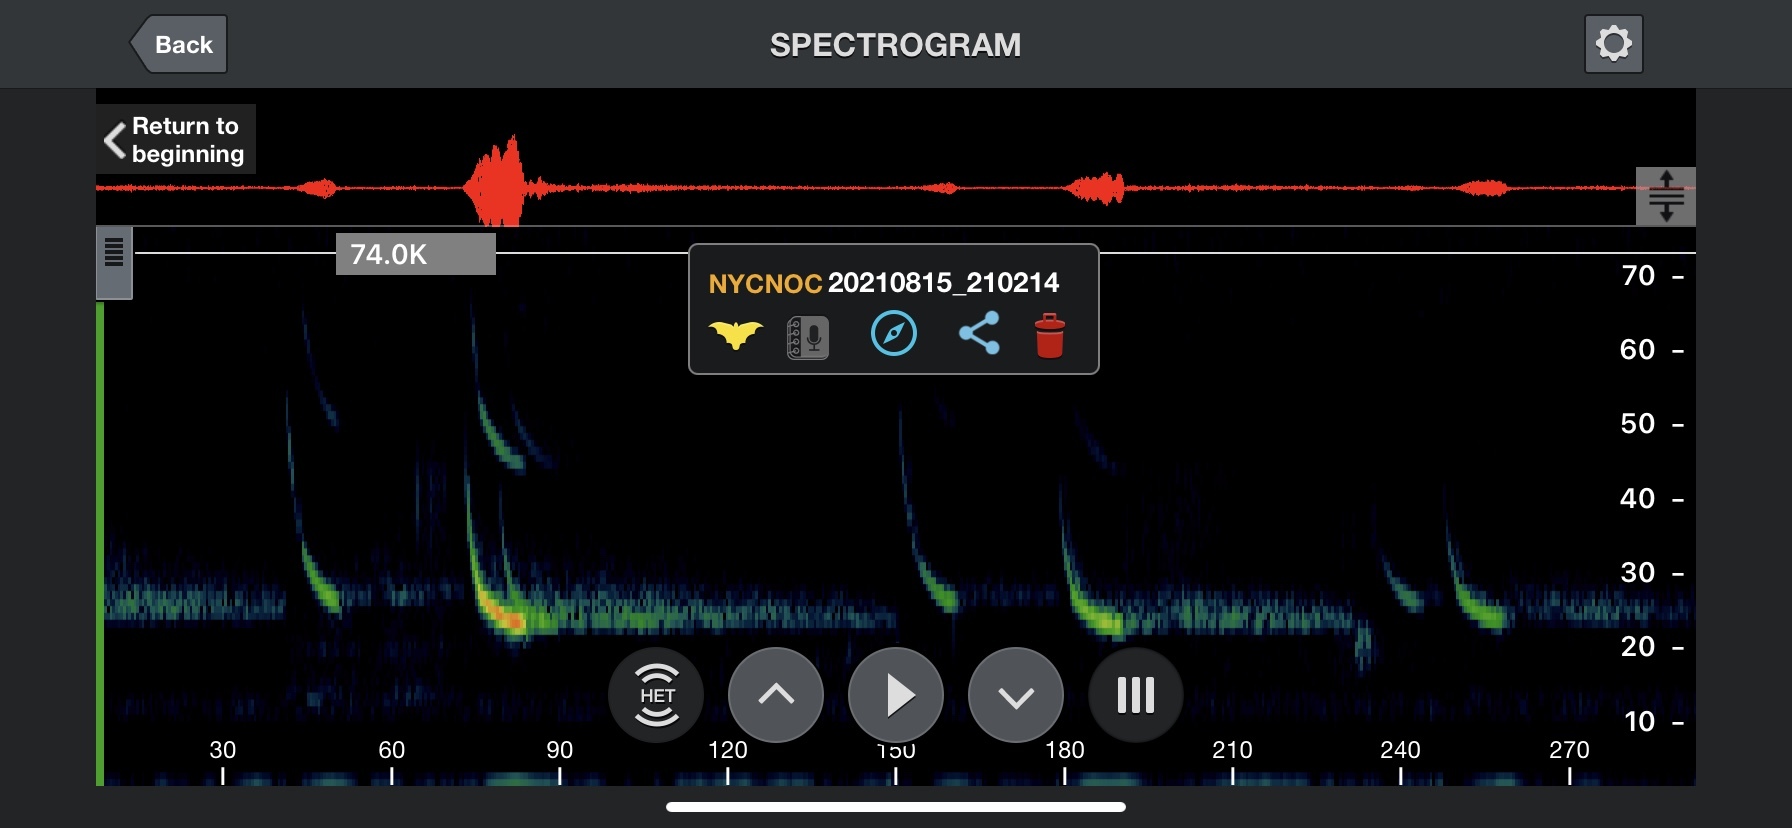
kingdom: Animalia
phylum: Chordata
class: Mammalia
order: Chiroptera
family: Vespertilionidae
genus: Nyctalus
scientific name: Nyctalus noctula
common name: Noctule
